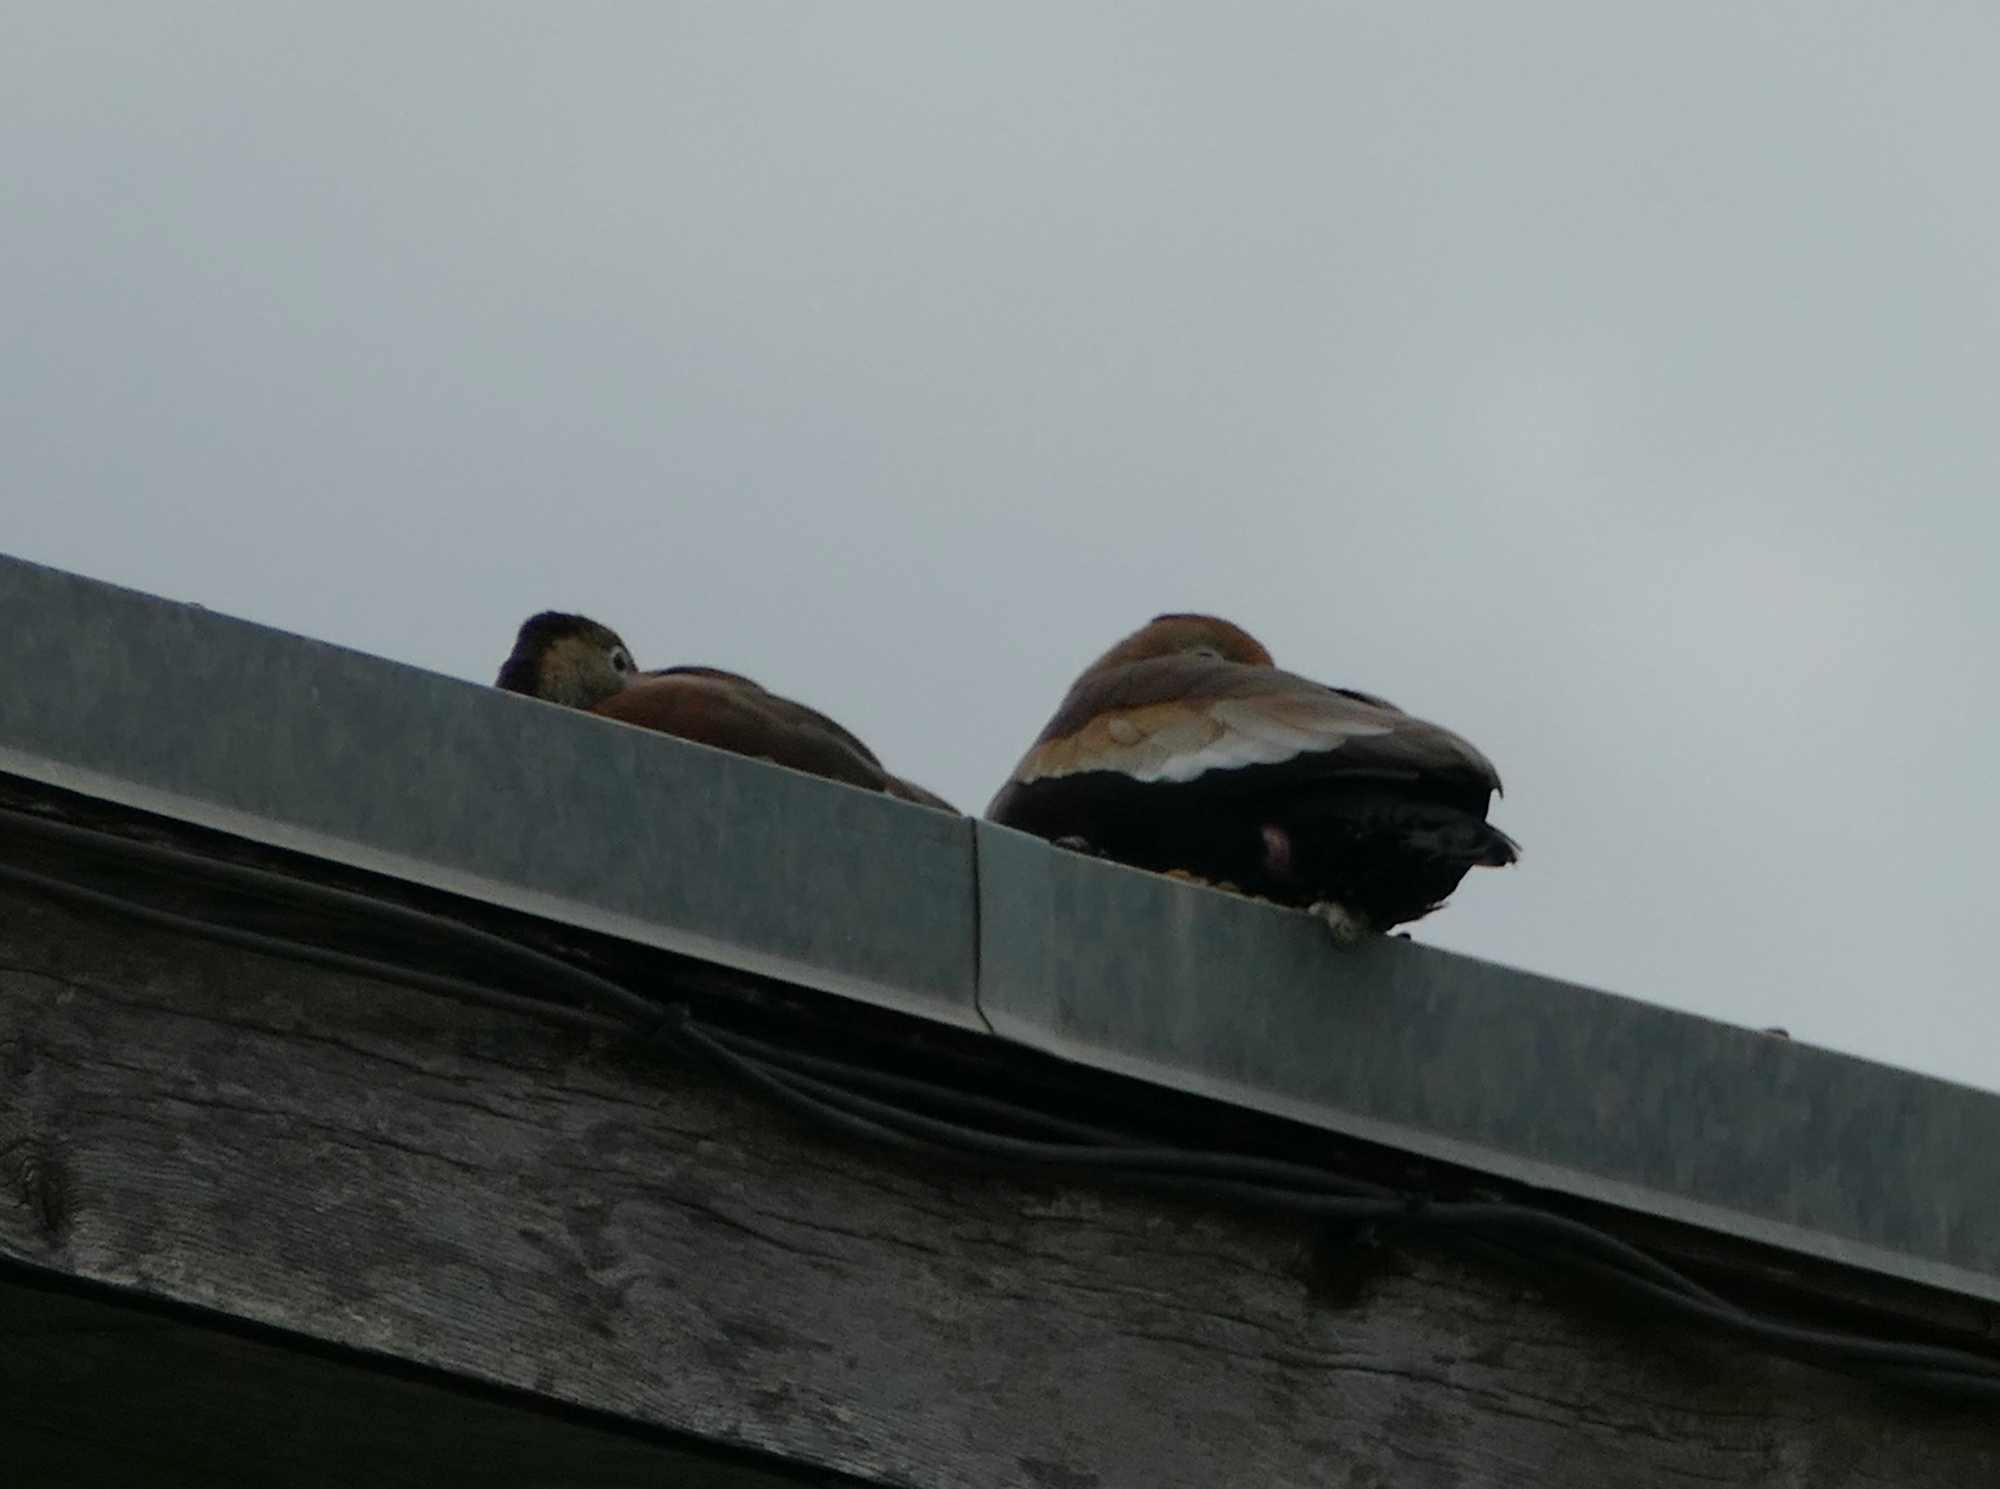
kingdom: Animalia
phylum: Chordata
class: Aves
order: Anseriformes
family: Anatidae
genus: Dendrocygna
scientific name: Dendrocygna autumnalis
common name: Black-bellied whistling duck
